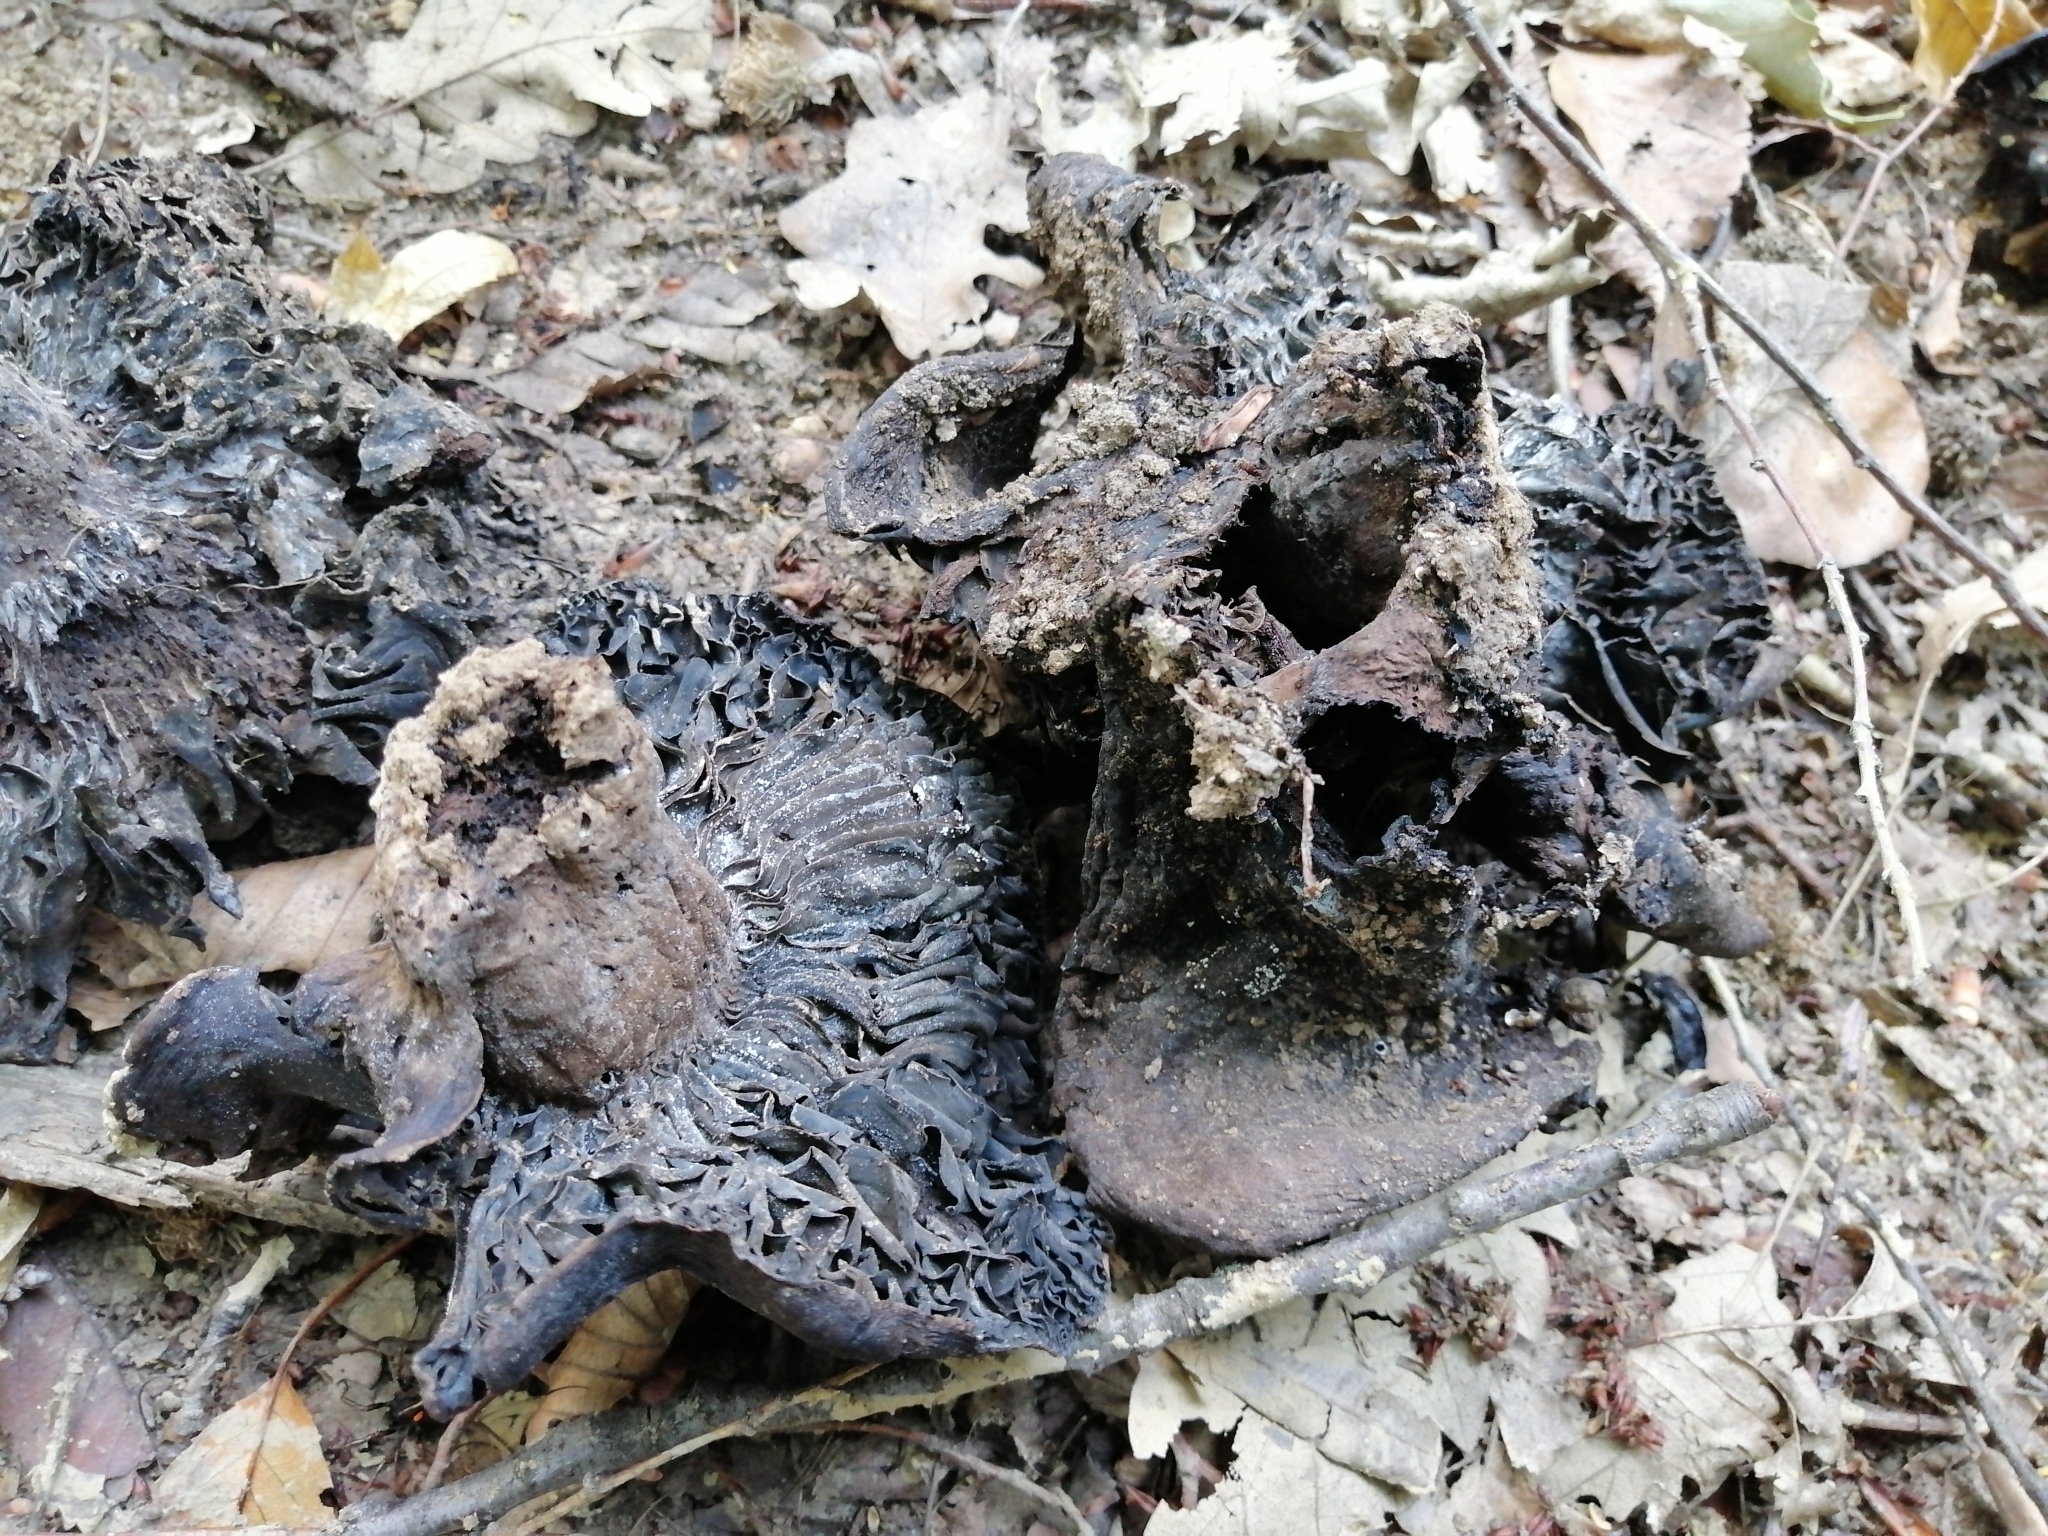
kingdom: Fungi
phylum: Basidiomycota
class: Agaricomycetes
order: Russulales
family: Russulaceae
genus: Russula
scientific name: Russula adusta
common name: Winecork brittlegill
